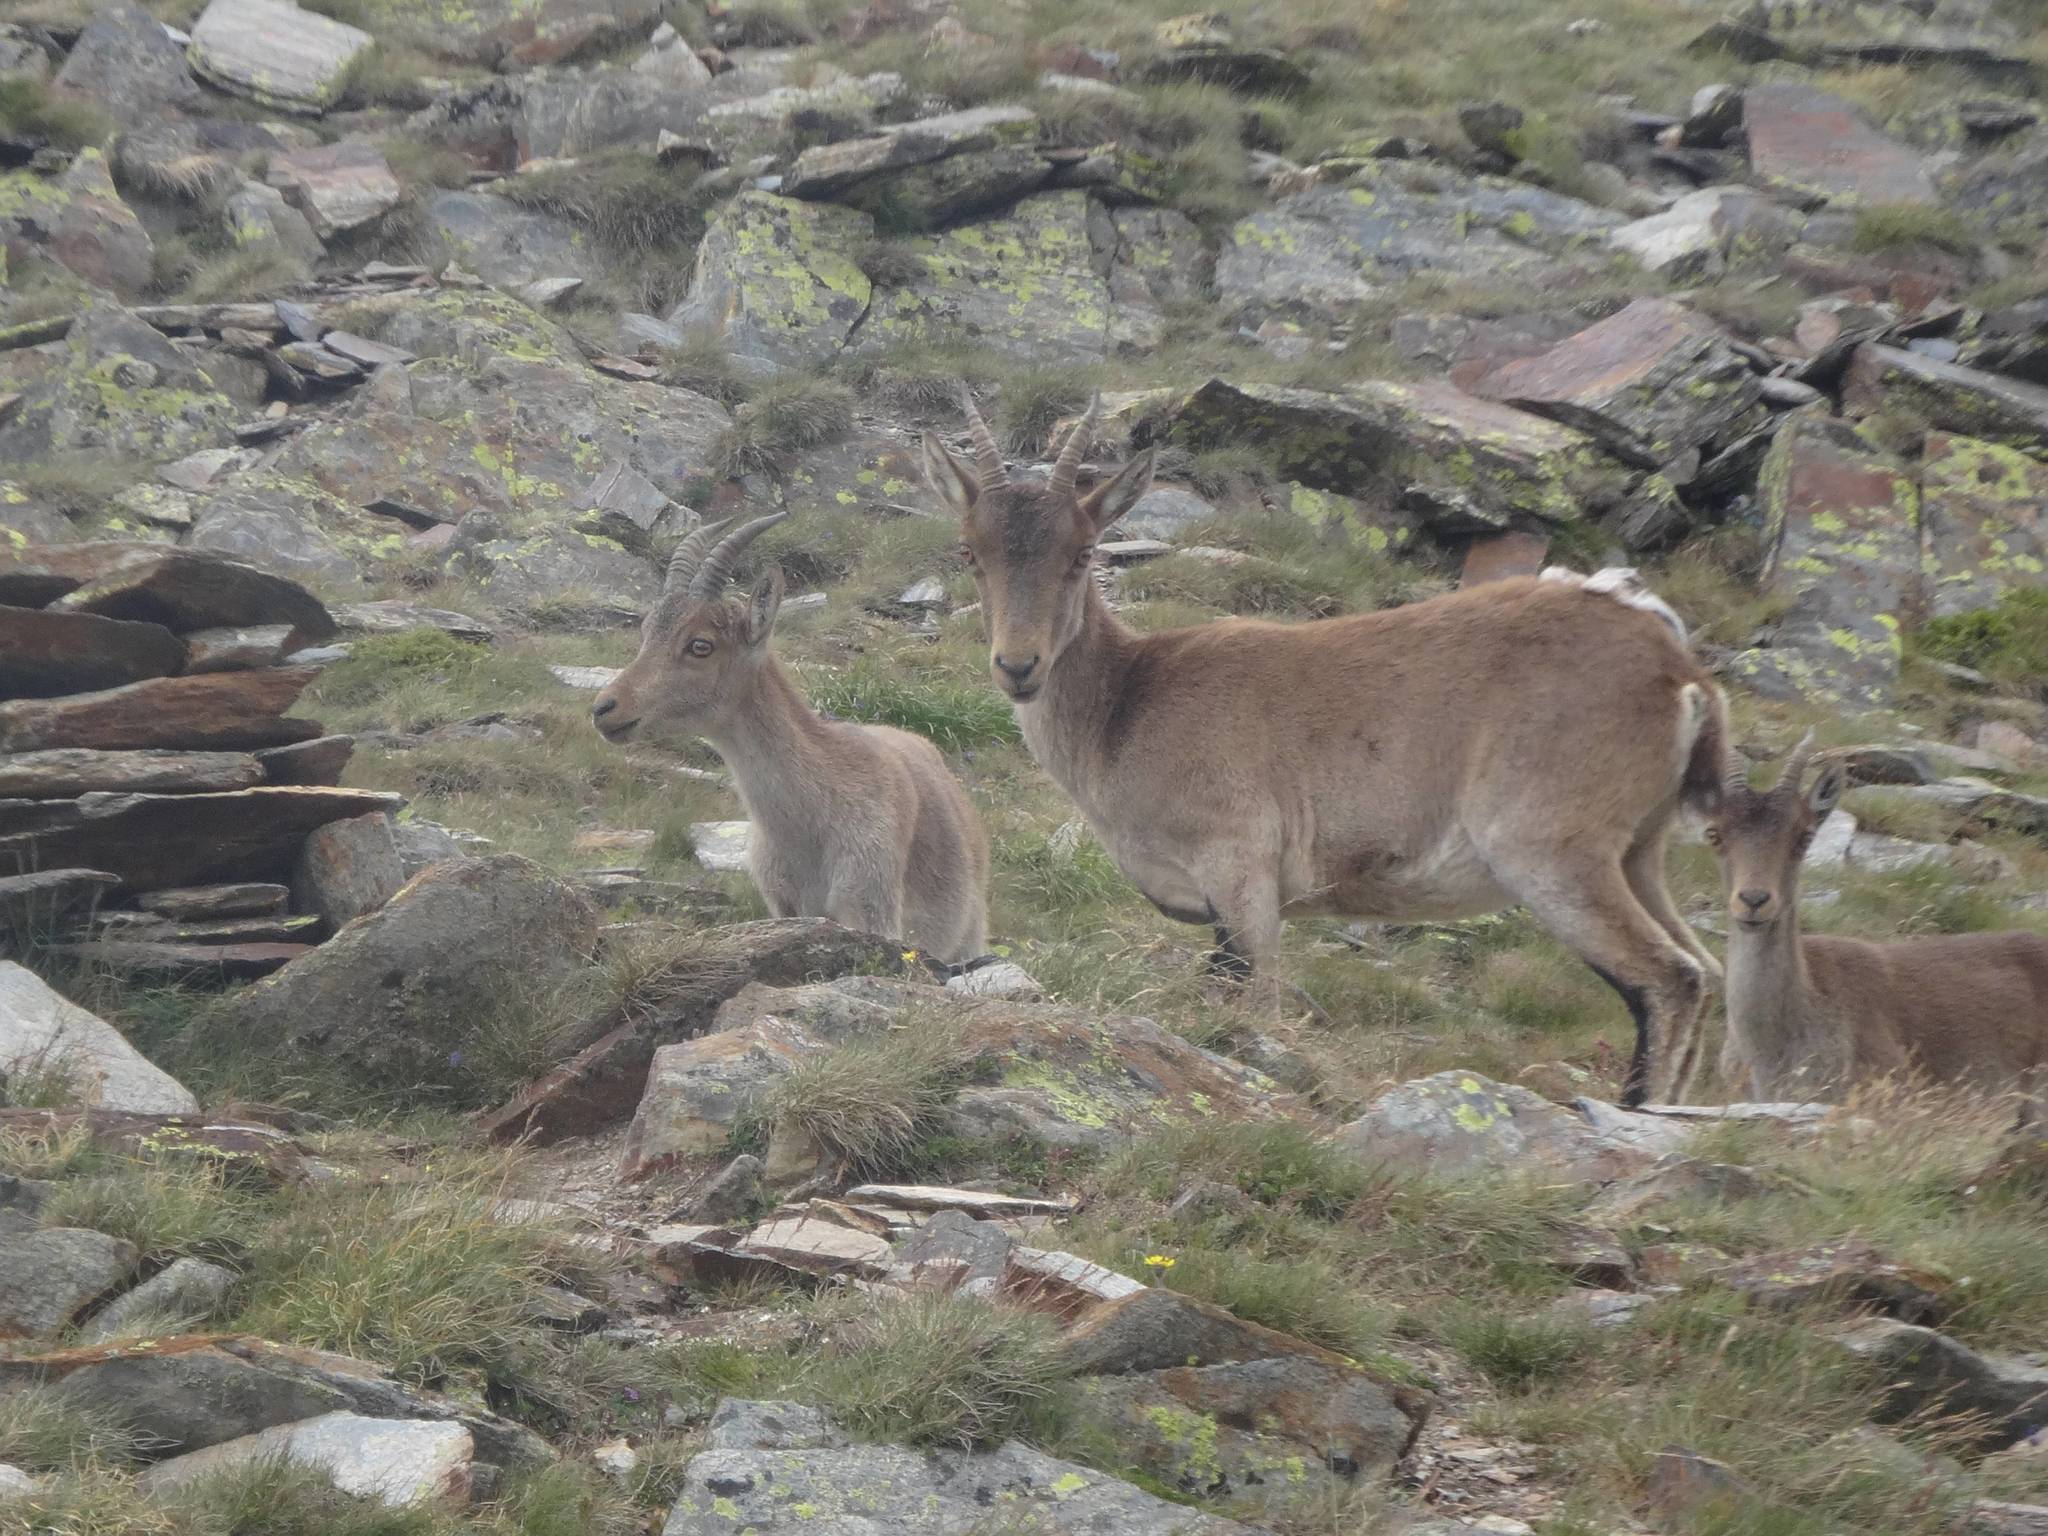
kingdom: Animalia
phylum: Chordata
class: Mammalia
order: Artiodactyla
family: Bovidae
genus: Capra
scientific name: Capra pyrenaica
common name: Spanish ibex
